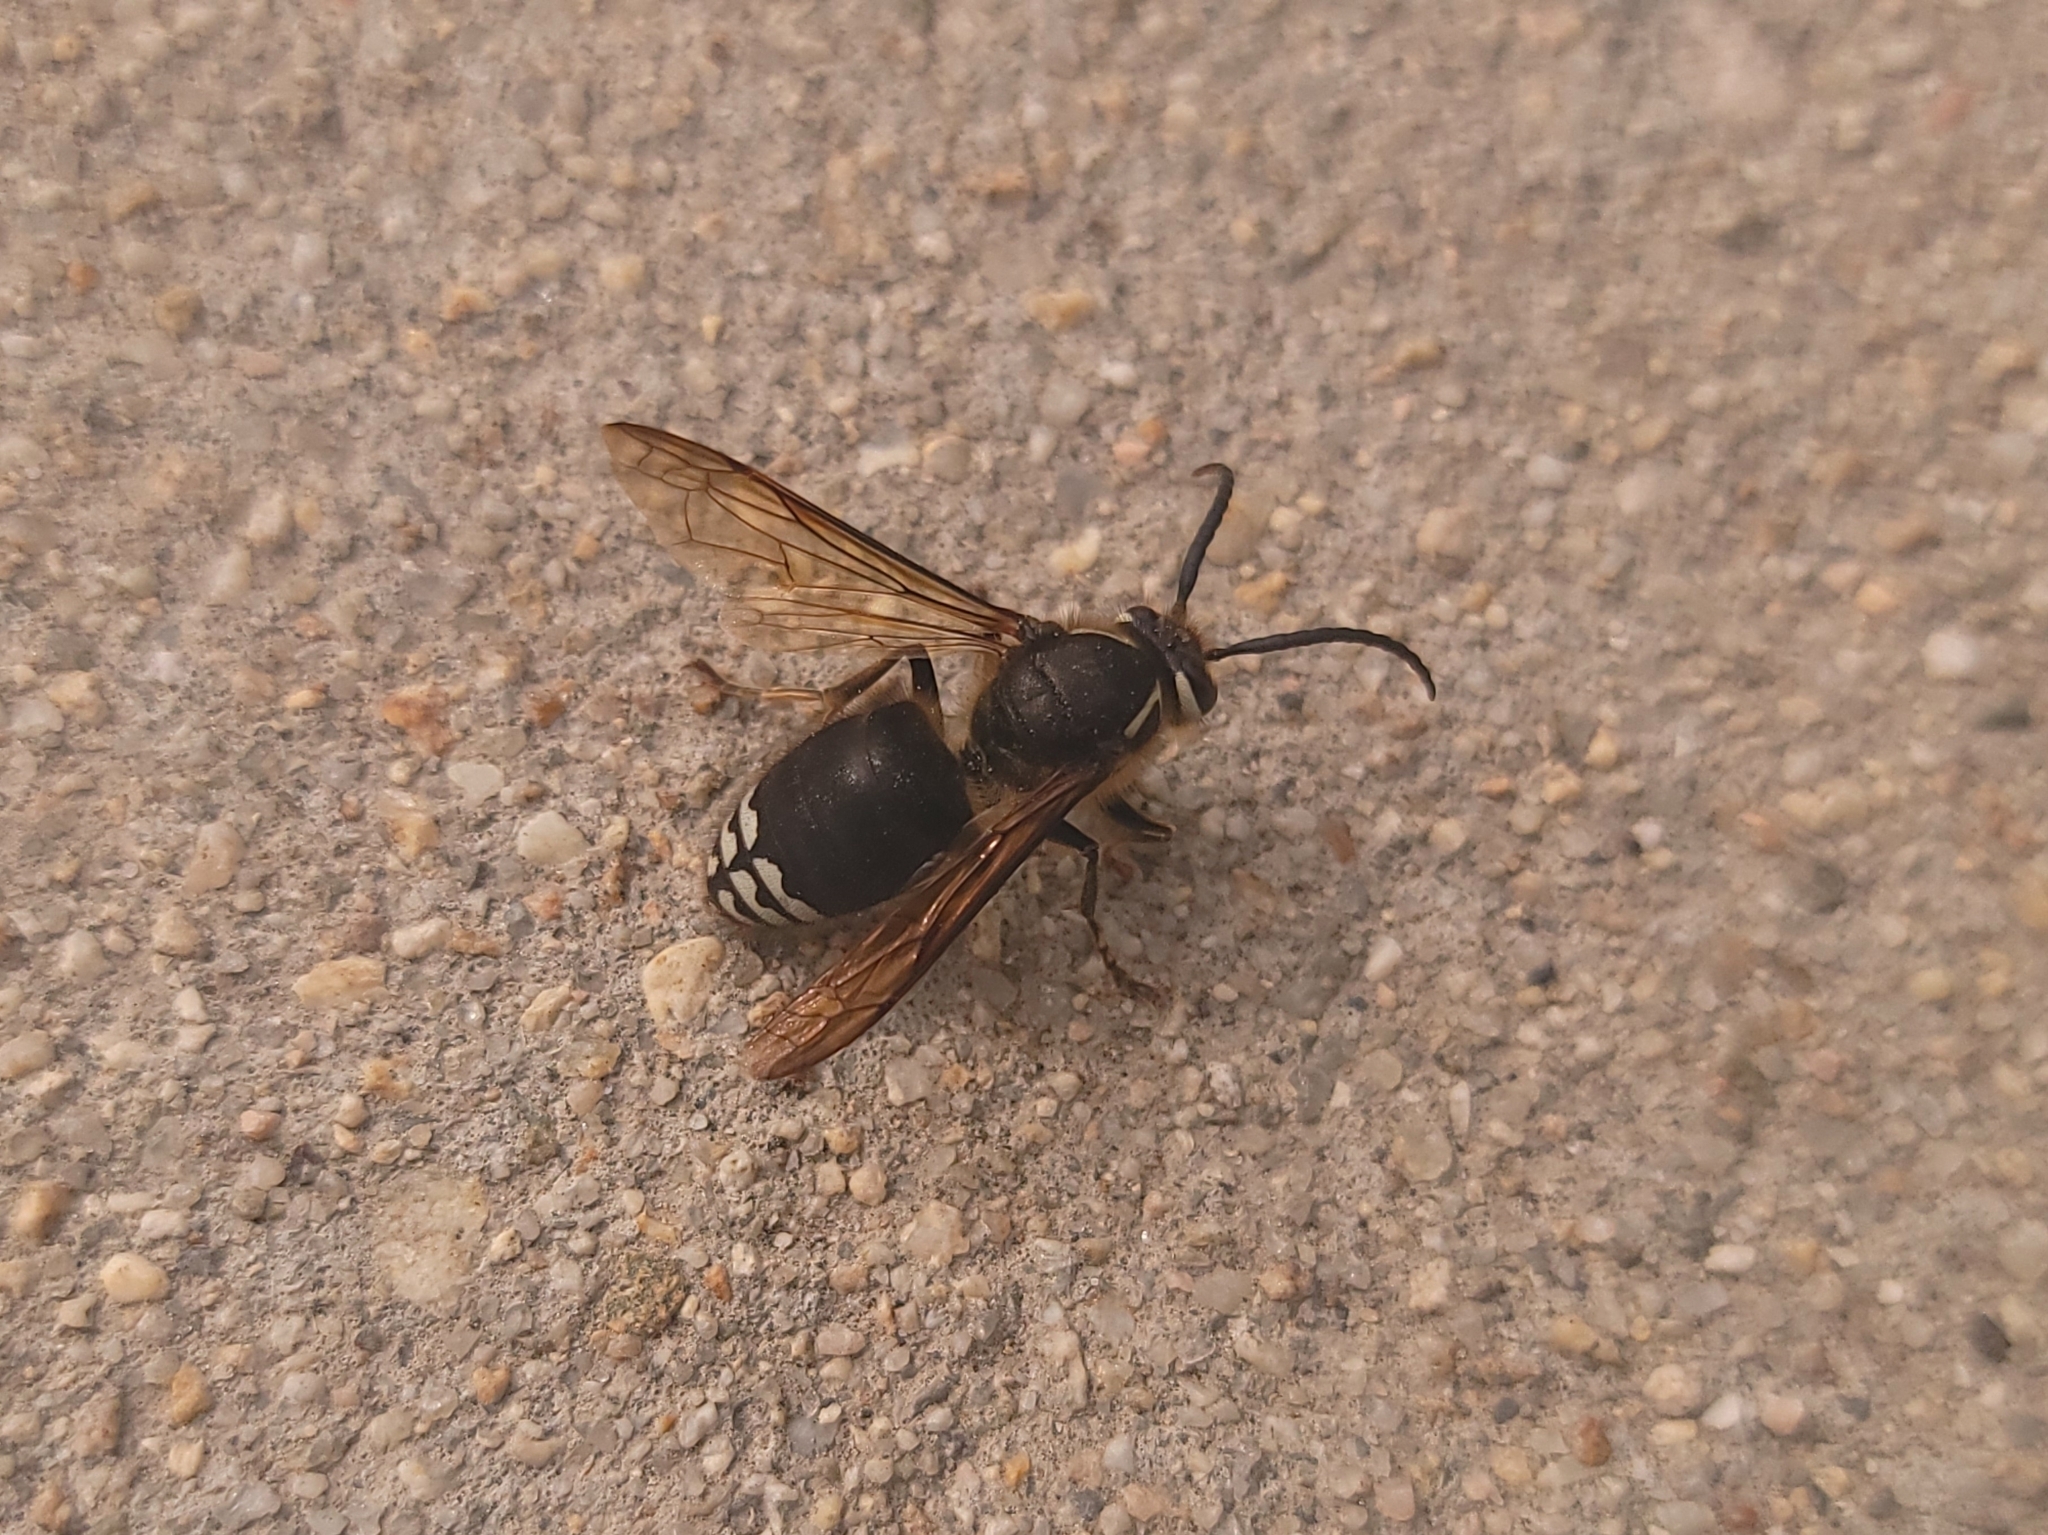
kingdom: Animalia
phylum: Arthropoda
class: Insecta
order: Hymenoptera
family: Vespidae
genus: Dolichovespula
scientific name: Dolichovespula maculata
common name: Bald-faced hornet
